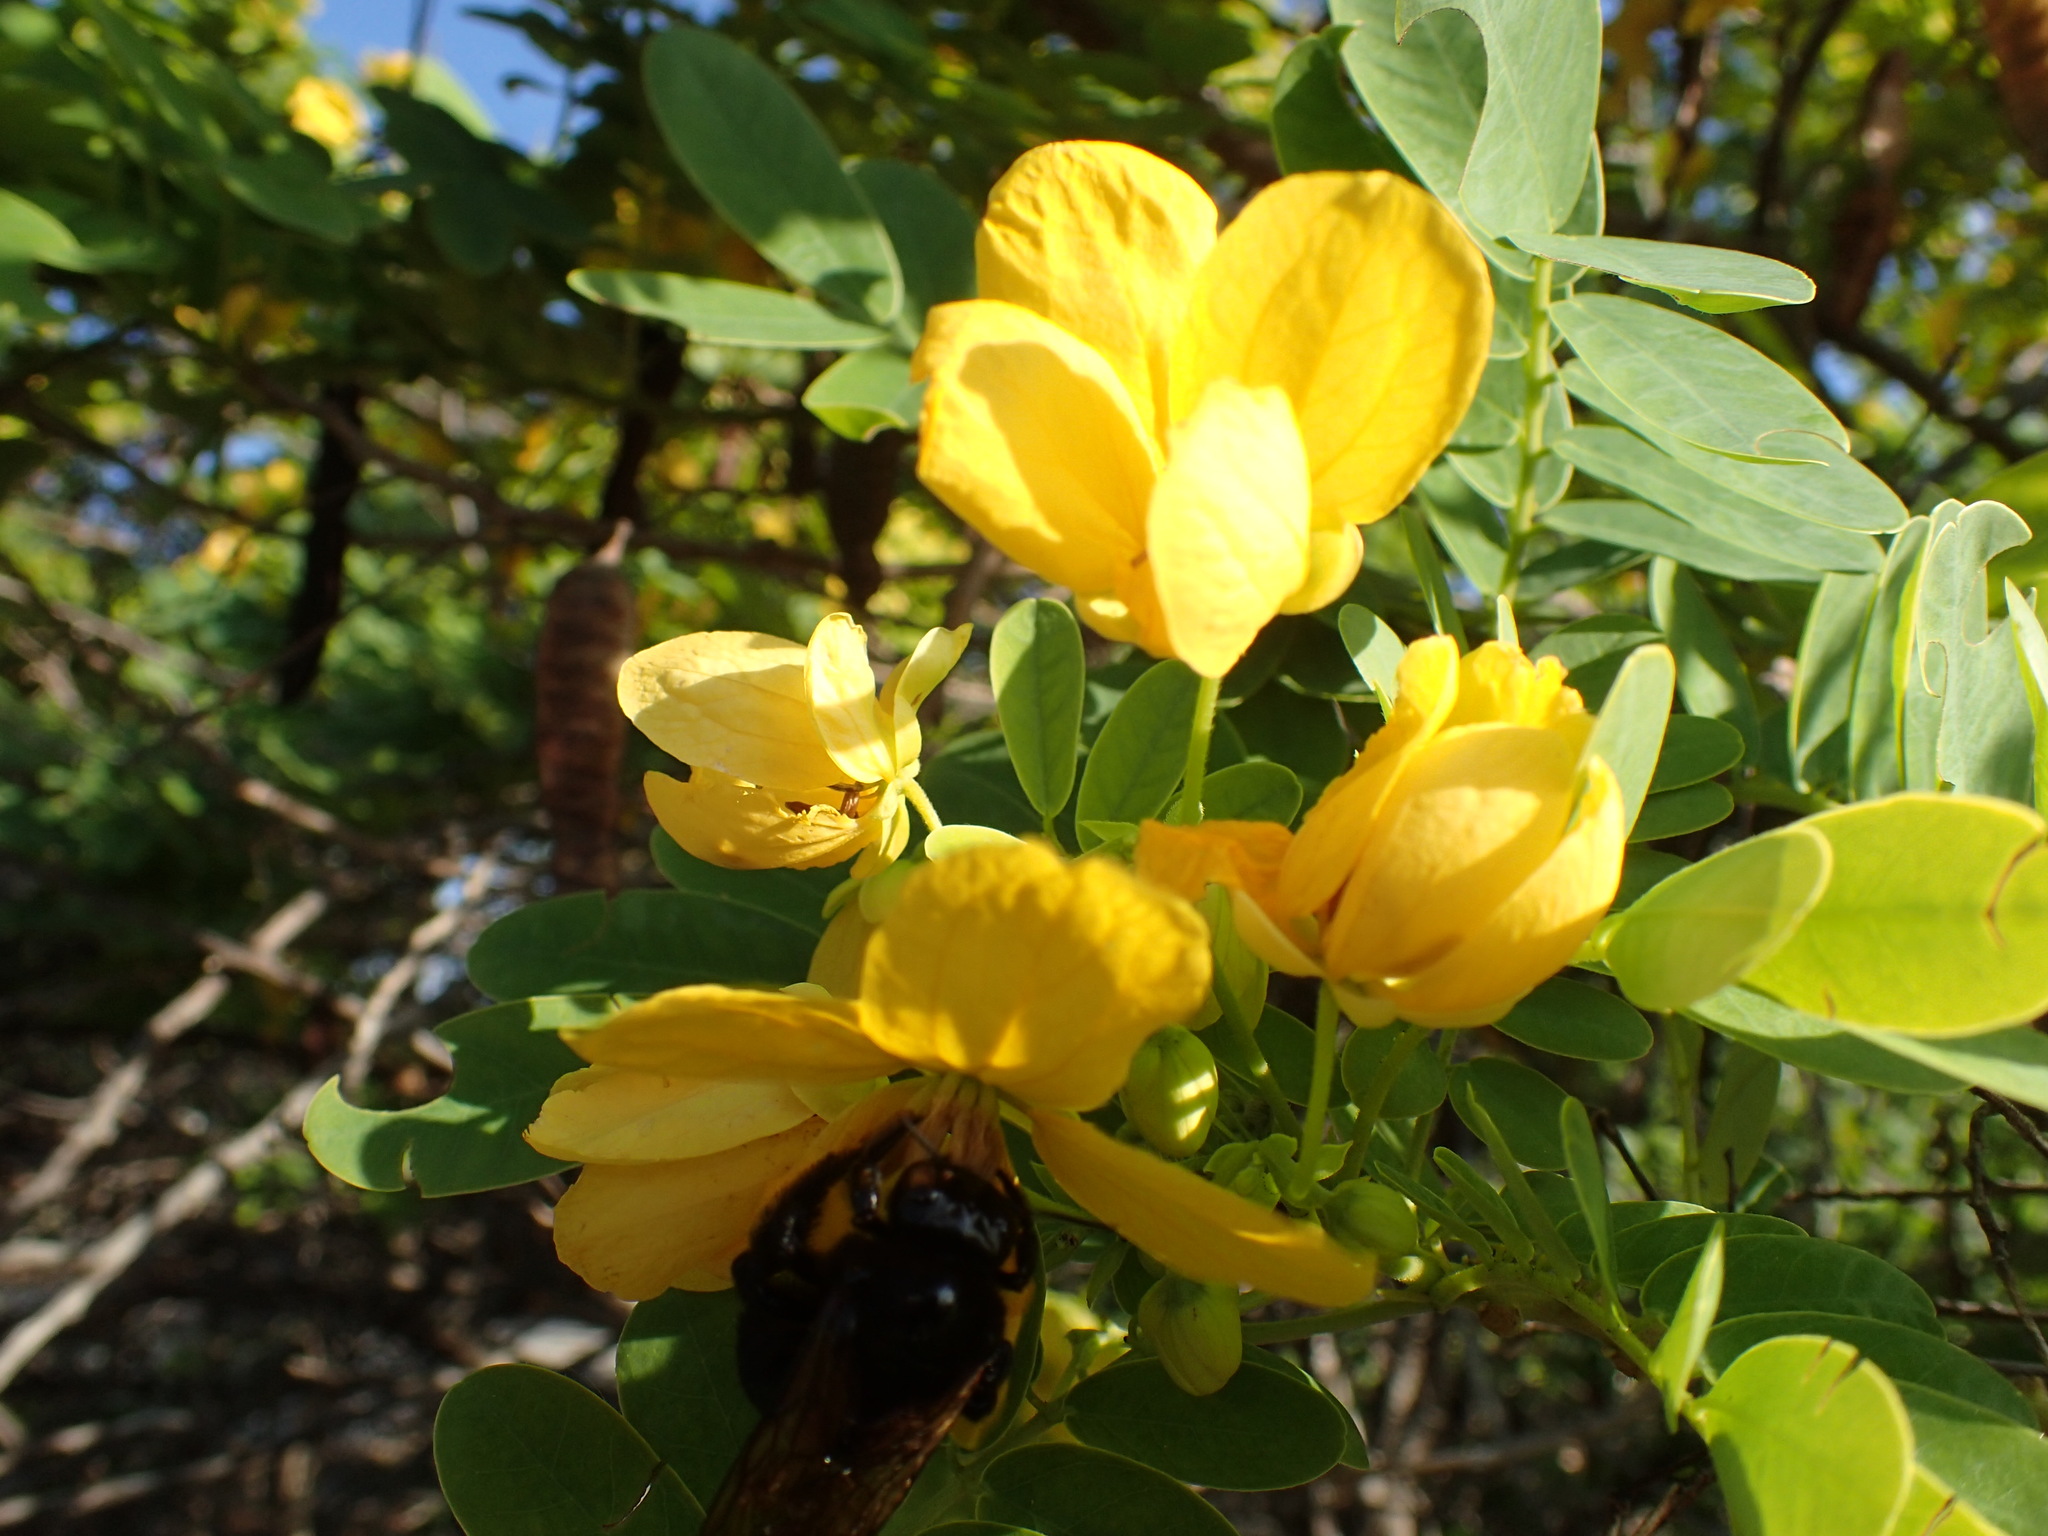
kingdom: Animalia
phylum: Arthropoda
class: Insecta
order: Hymenoptera
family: Apidae
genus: Xylocopa
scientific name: Xylocopa sonorina
